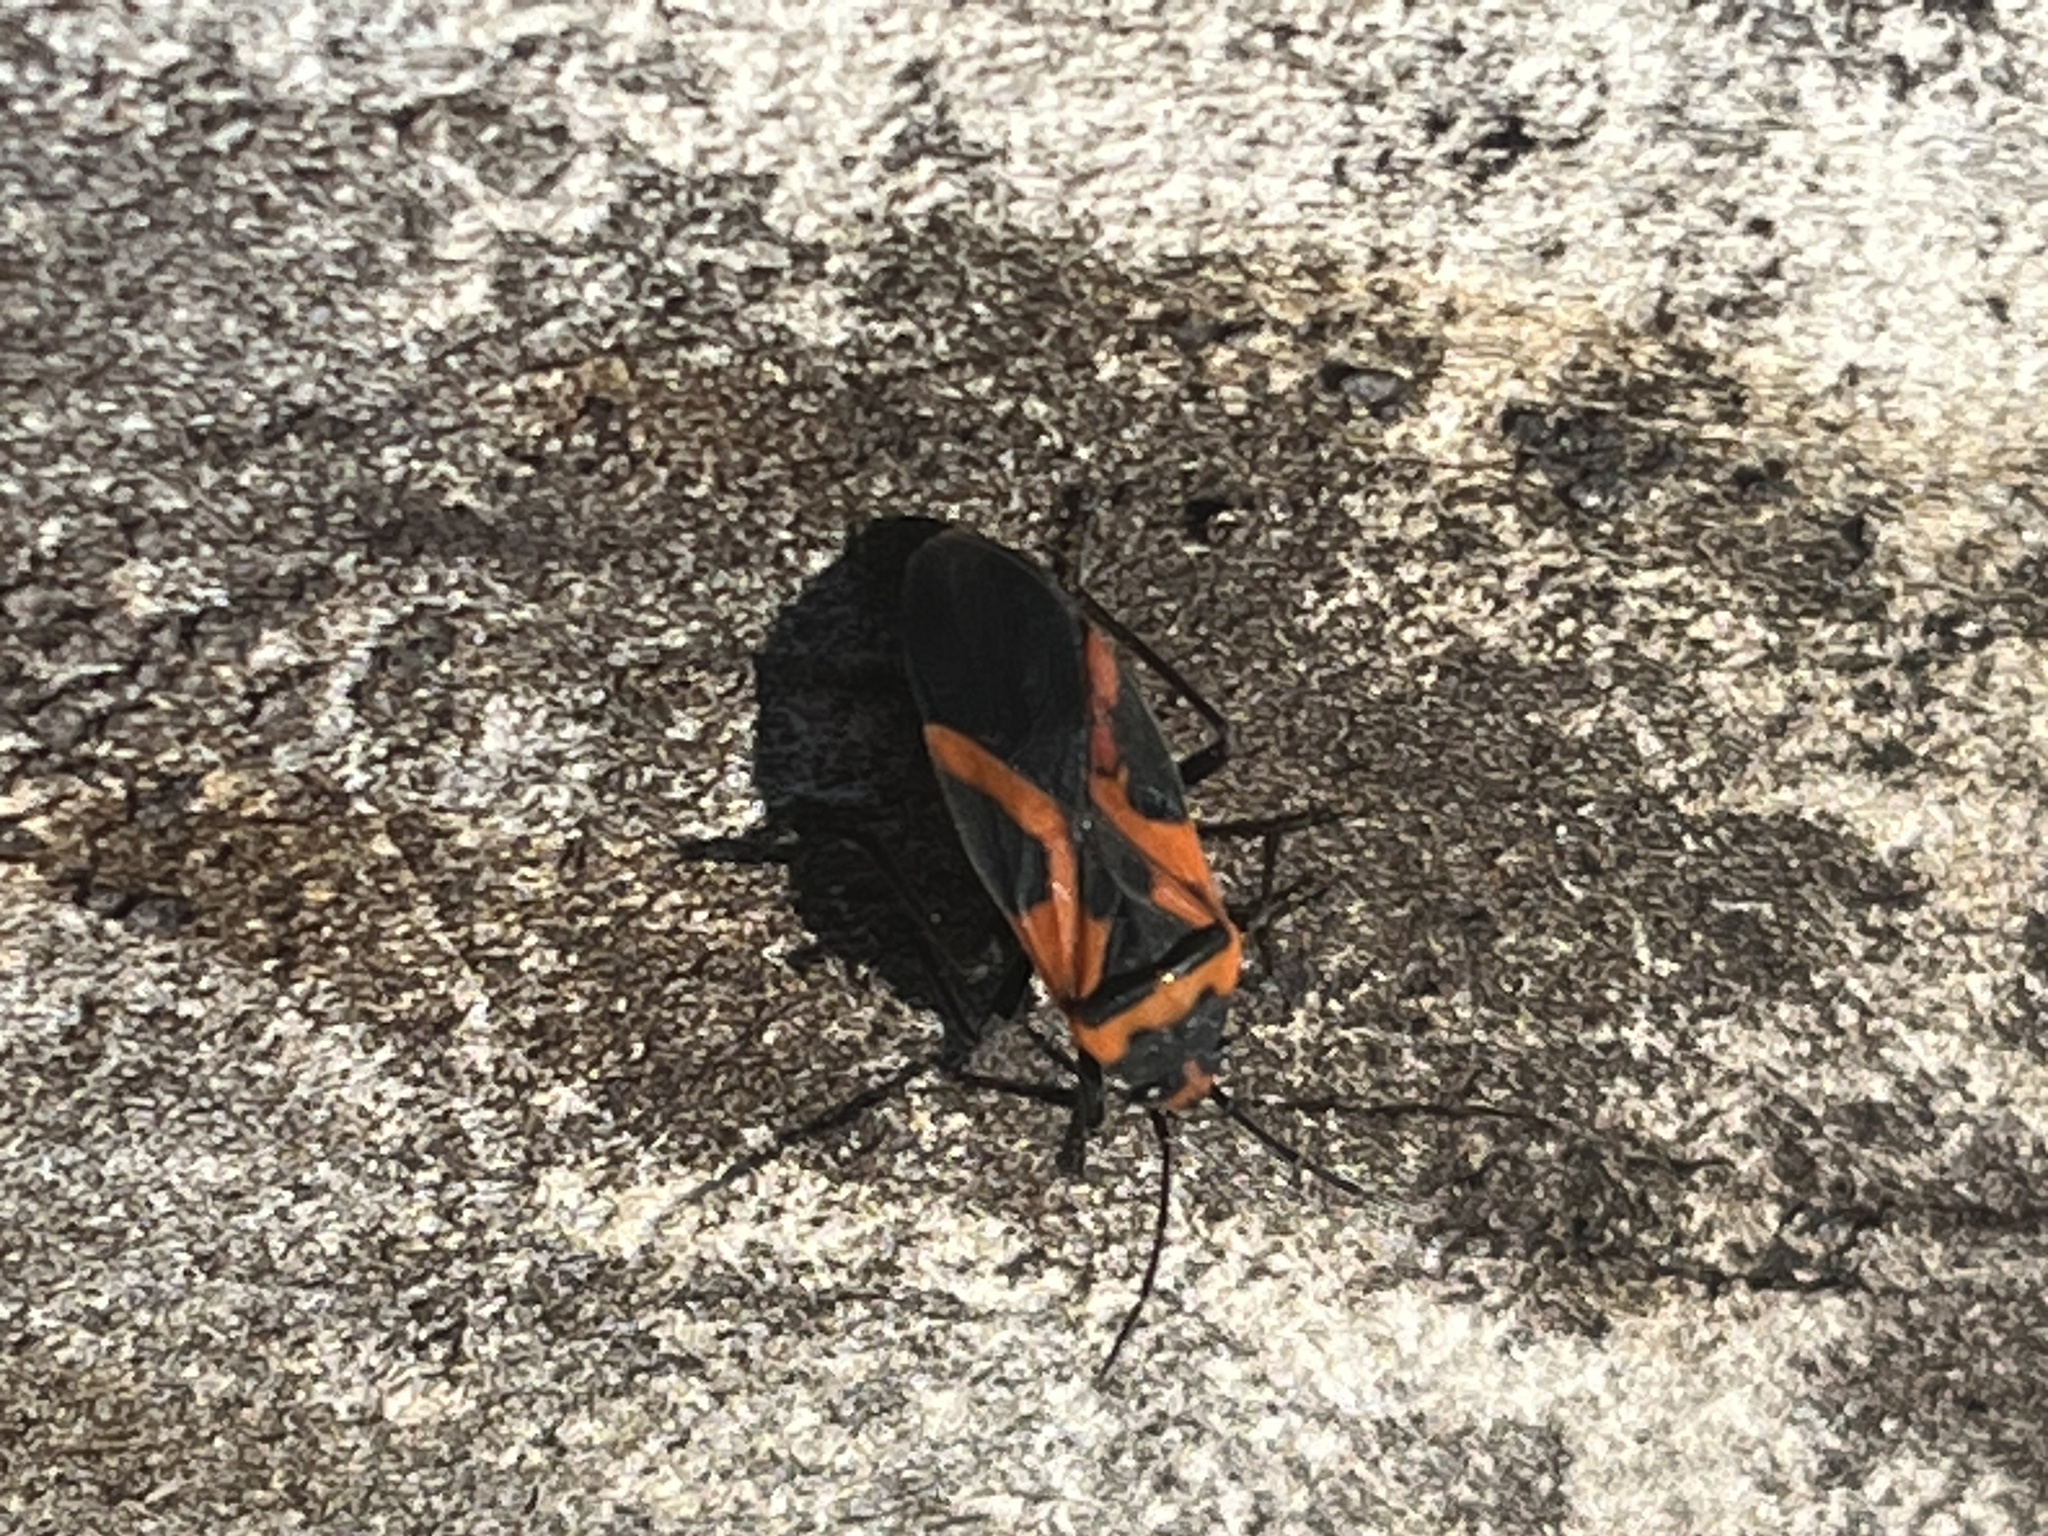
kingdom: Animalia
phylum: Arthropoda
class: Insecta
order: Hemiptera
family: Lygaeidae
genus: Lygaeus
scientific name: Lygaeus turcicus
